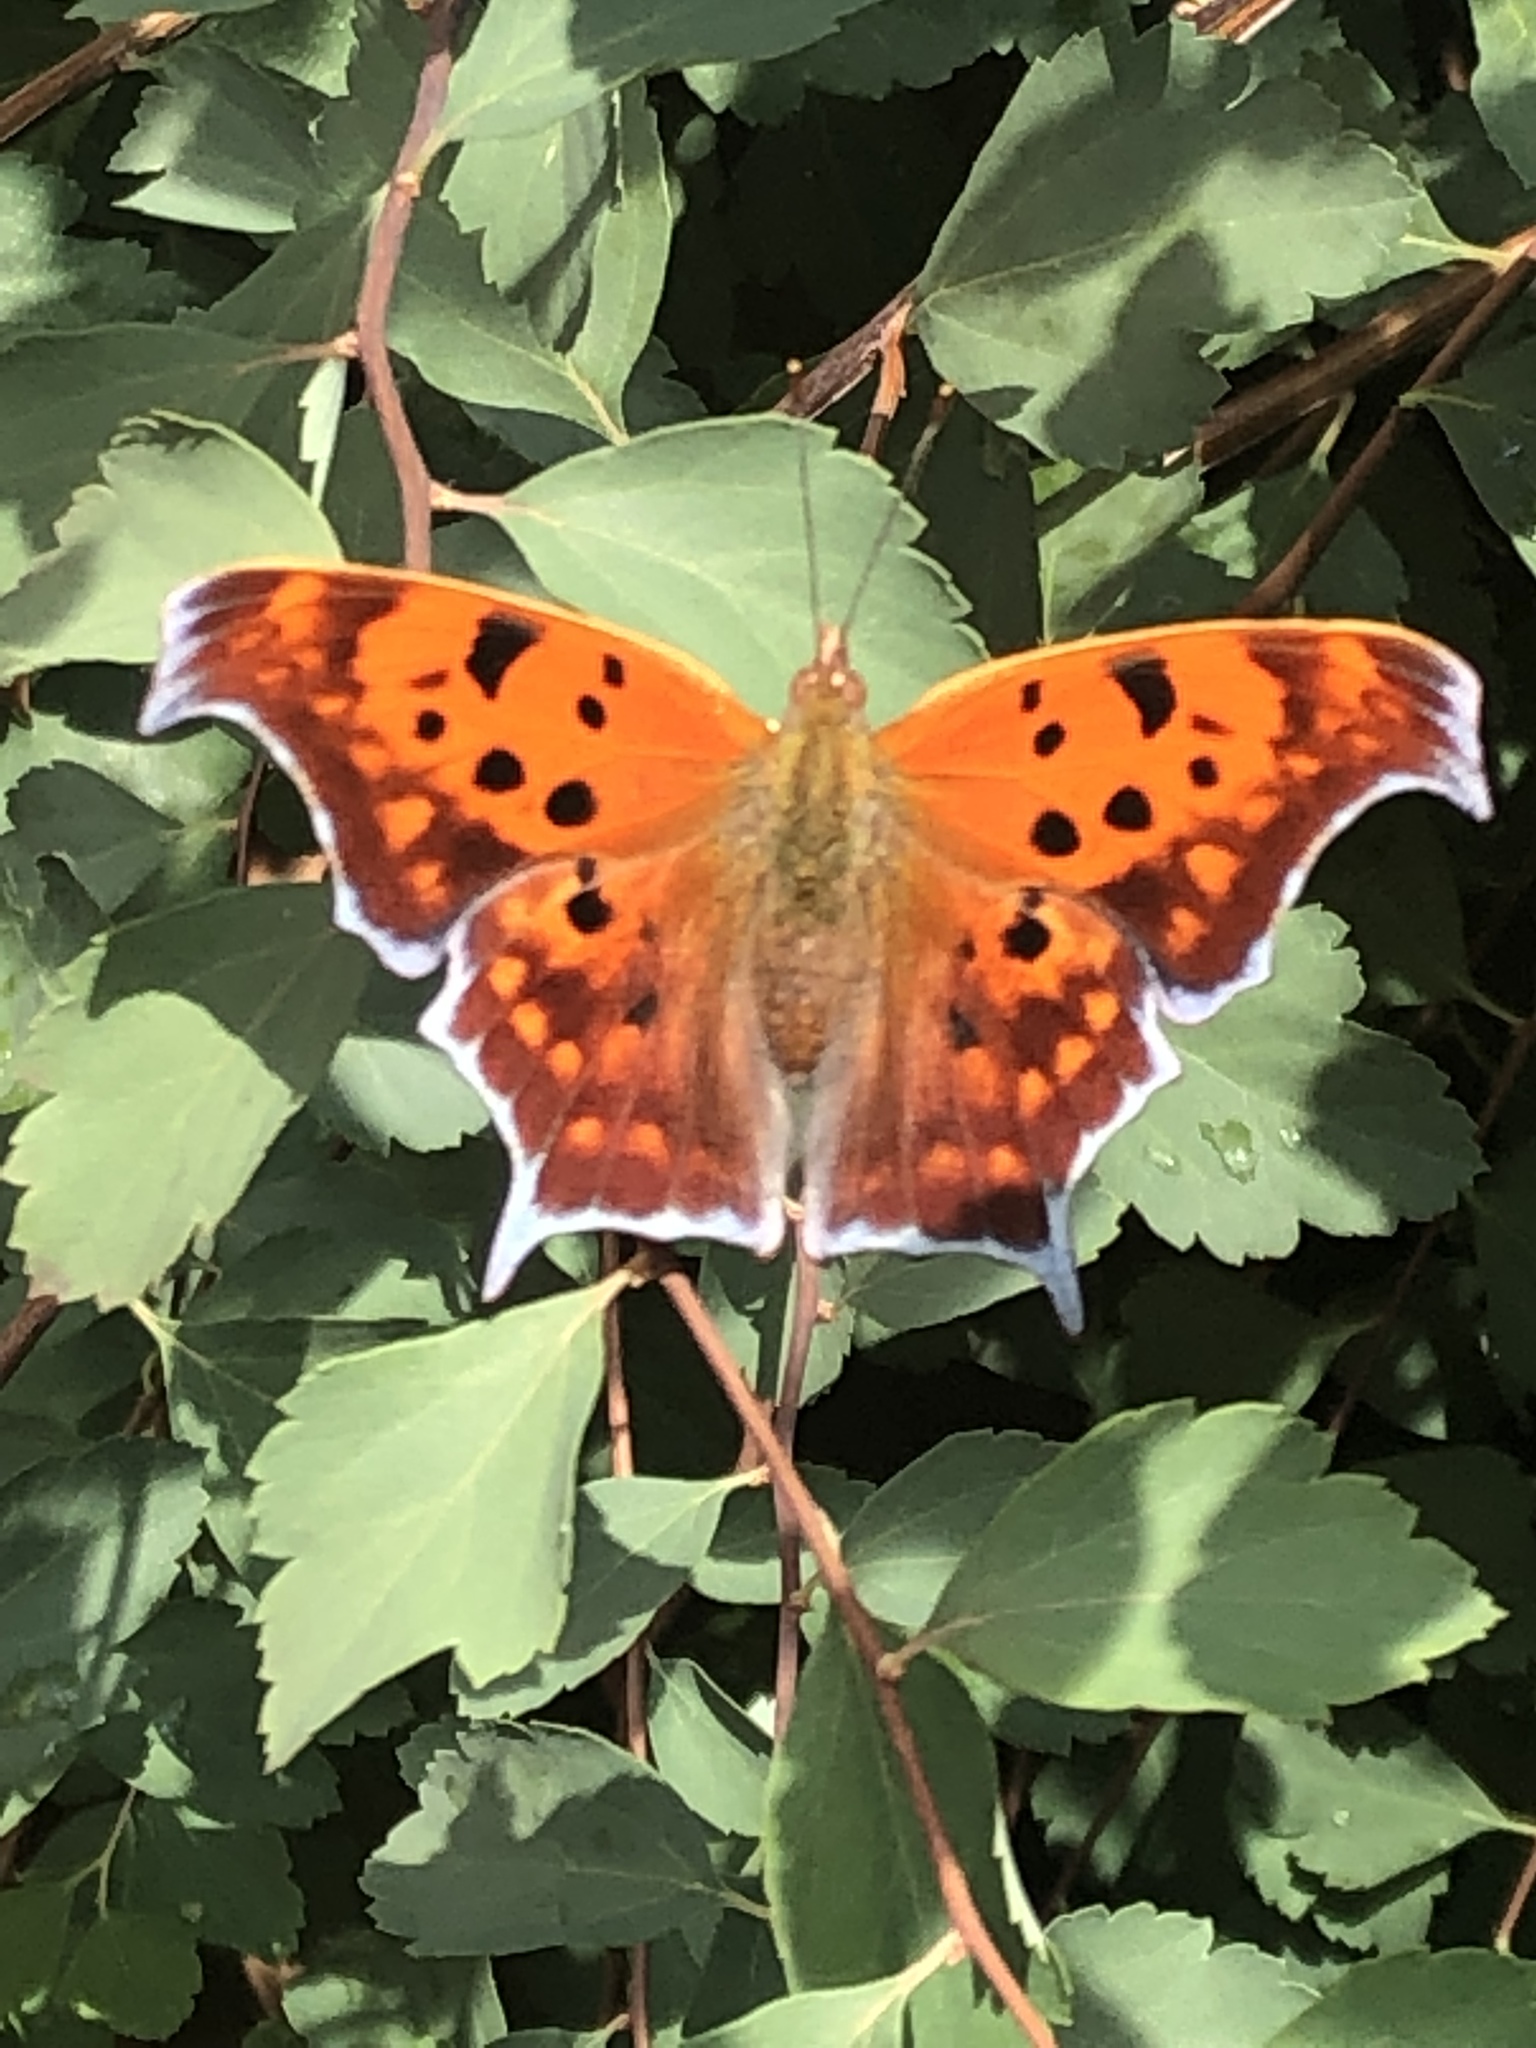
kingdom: Animalia
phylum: Arthropoda
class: Insecta
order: Lepidoptera
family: Nymphalidae
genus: Polygonia
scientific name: Polygonia interrogationis
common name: Question mark
